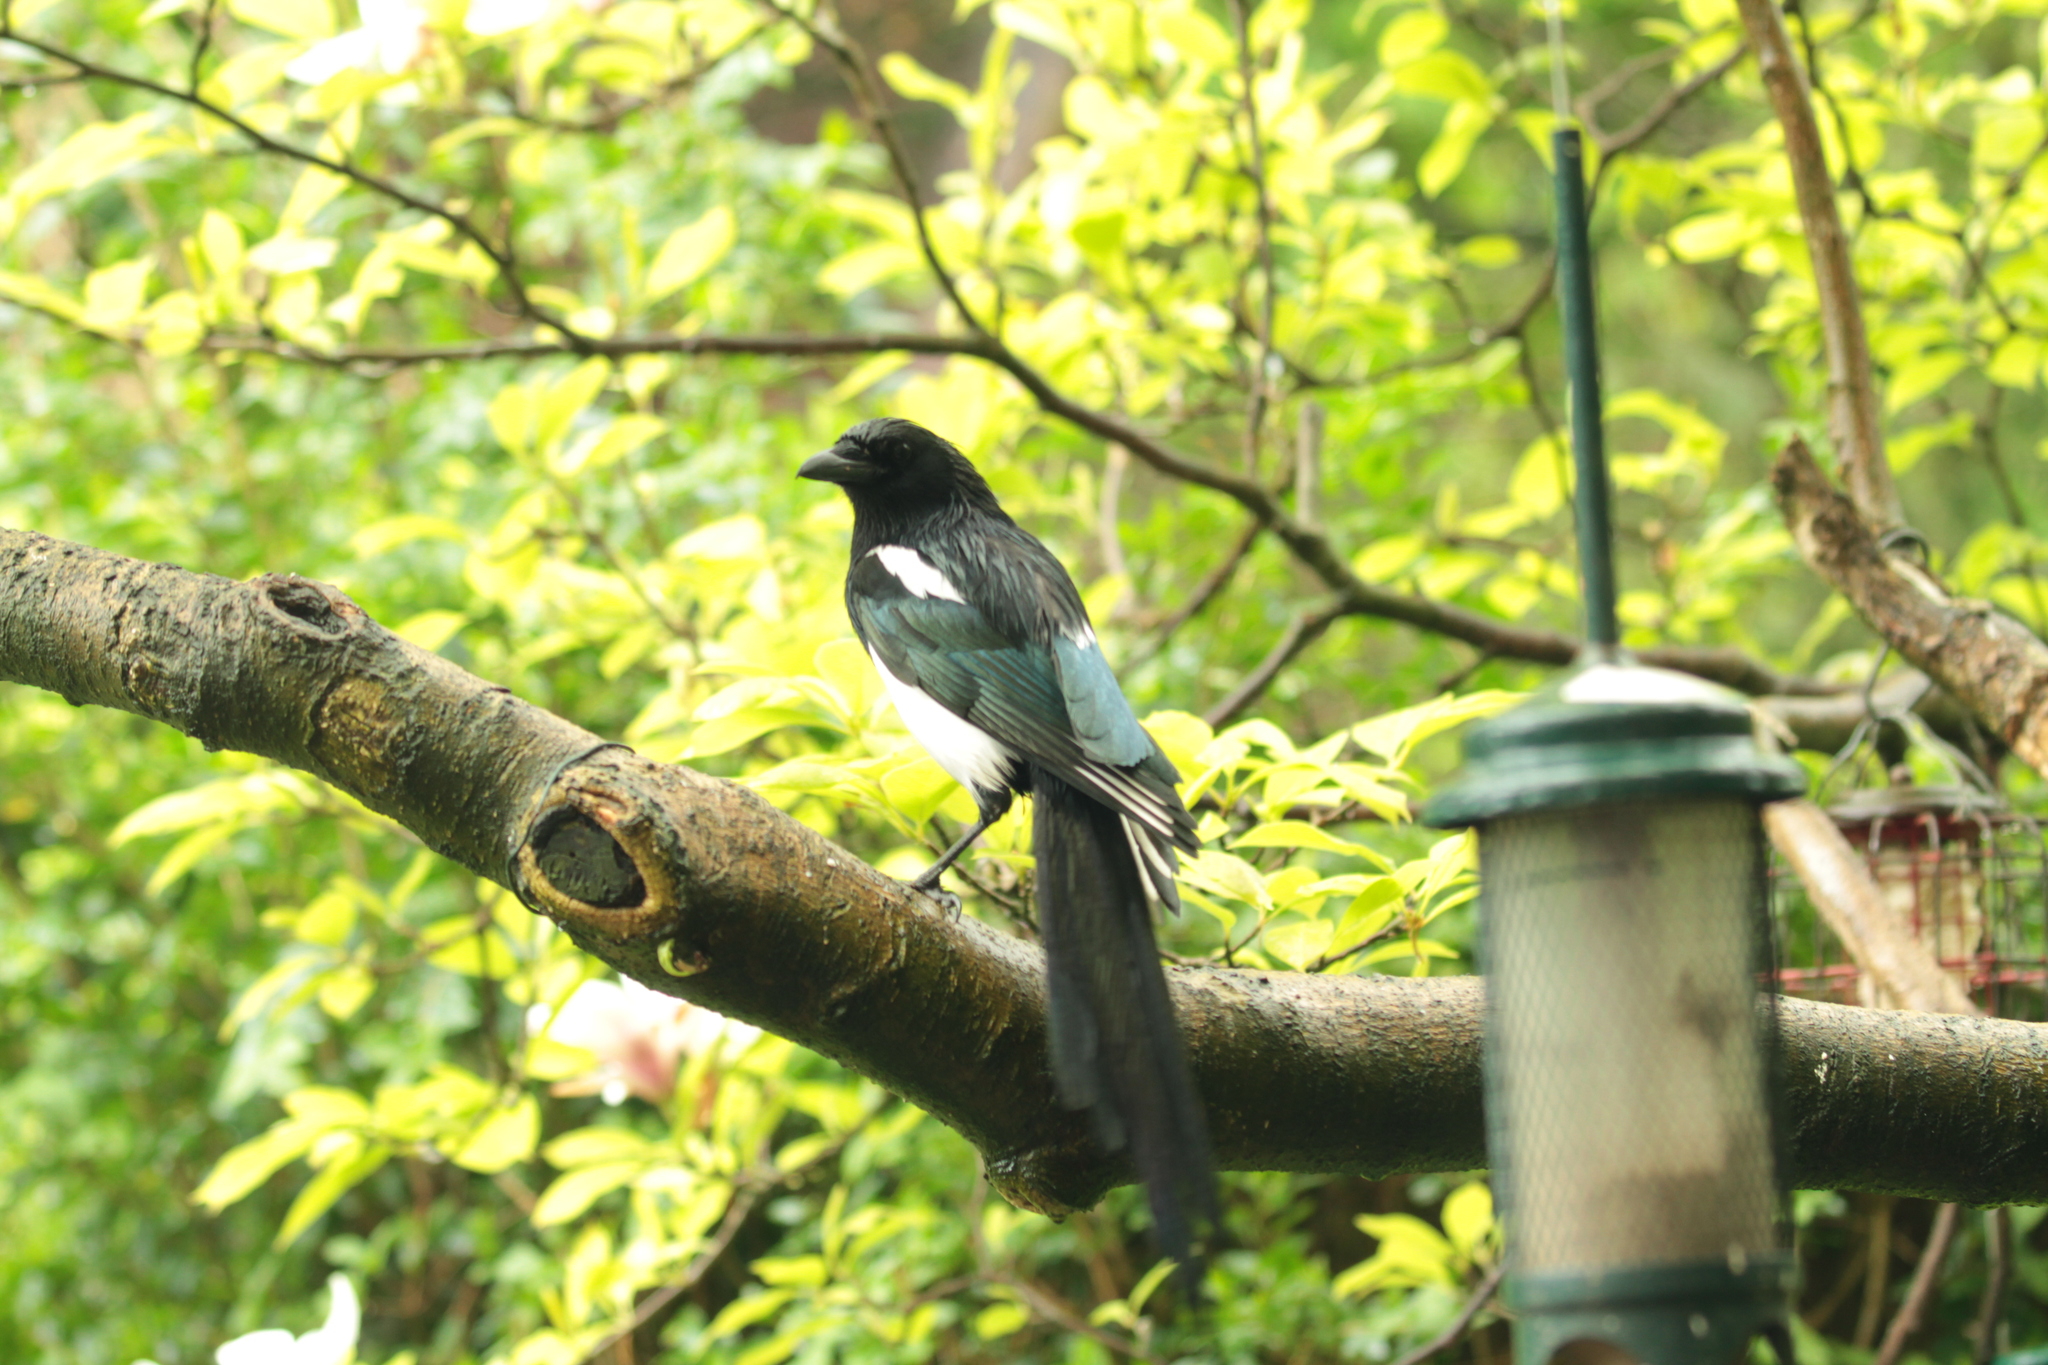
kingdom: Animalia
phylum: Chordata
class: Aves
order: Passeriformes
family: Corvidae
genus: Pica
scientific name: Pica pica
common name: Eurasian magpie
